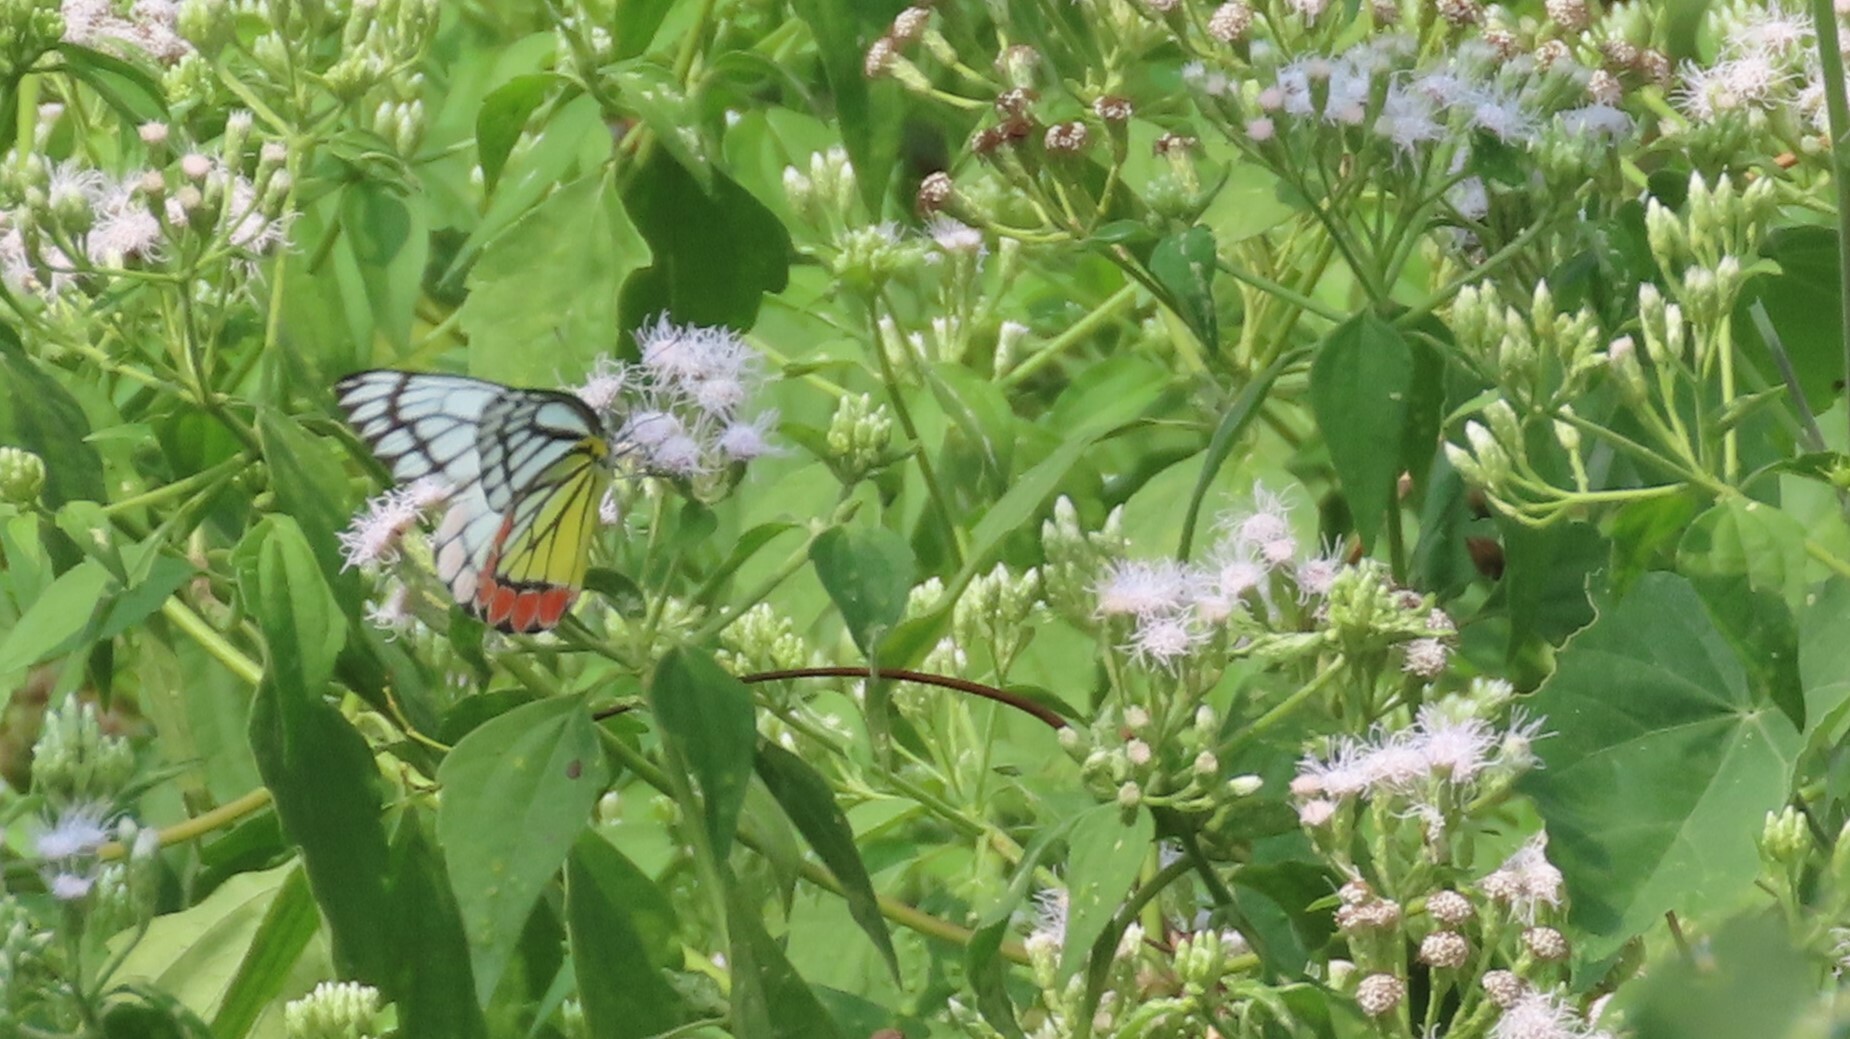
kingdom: Animalia
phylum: Arthropoda
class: Insecta
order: Lepidoptera
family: Pieridae
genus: Delias
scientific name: Delias eucharis
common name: Common jezebel
